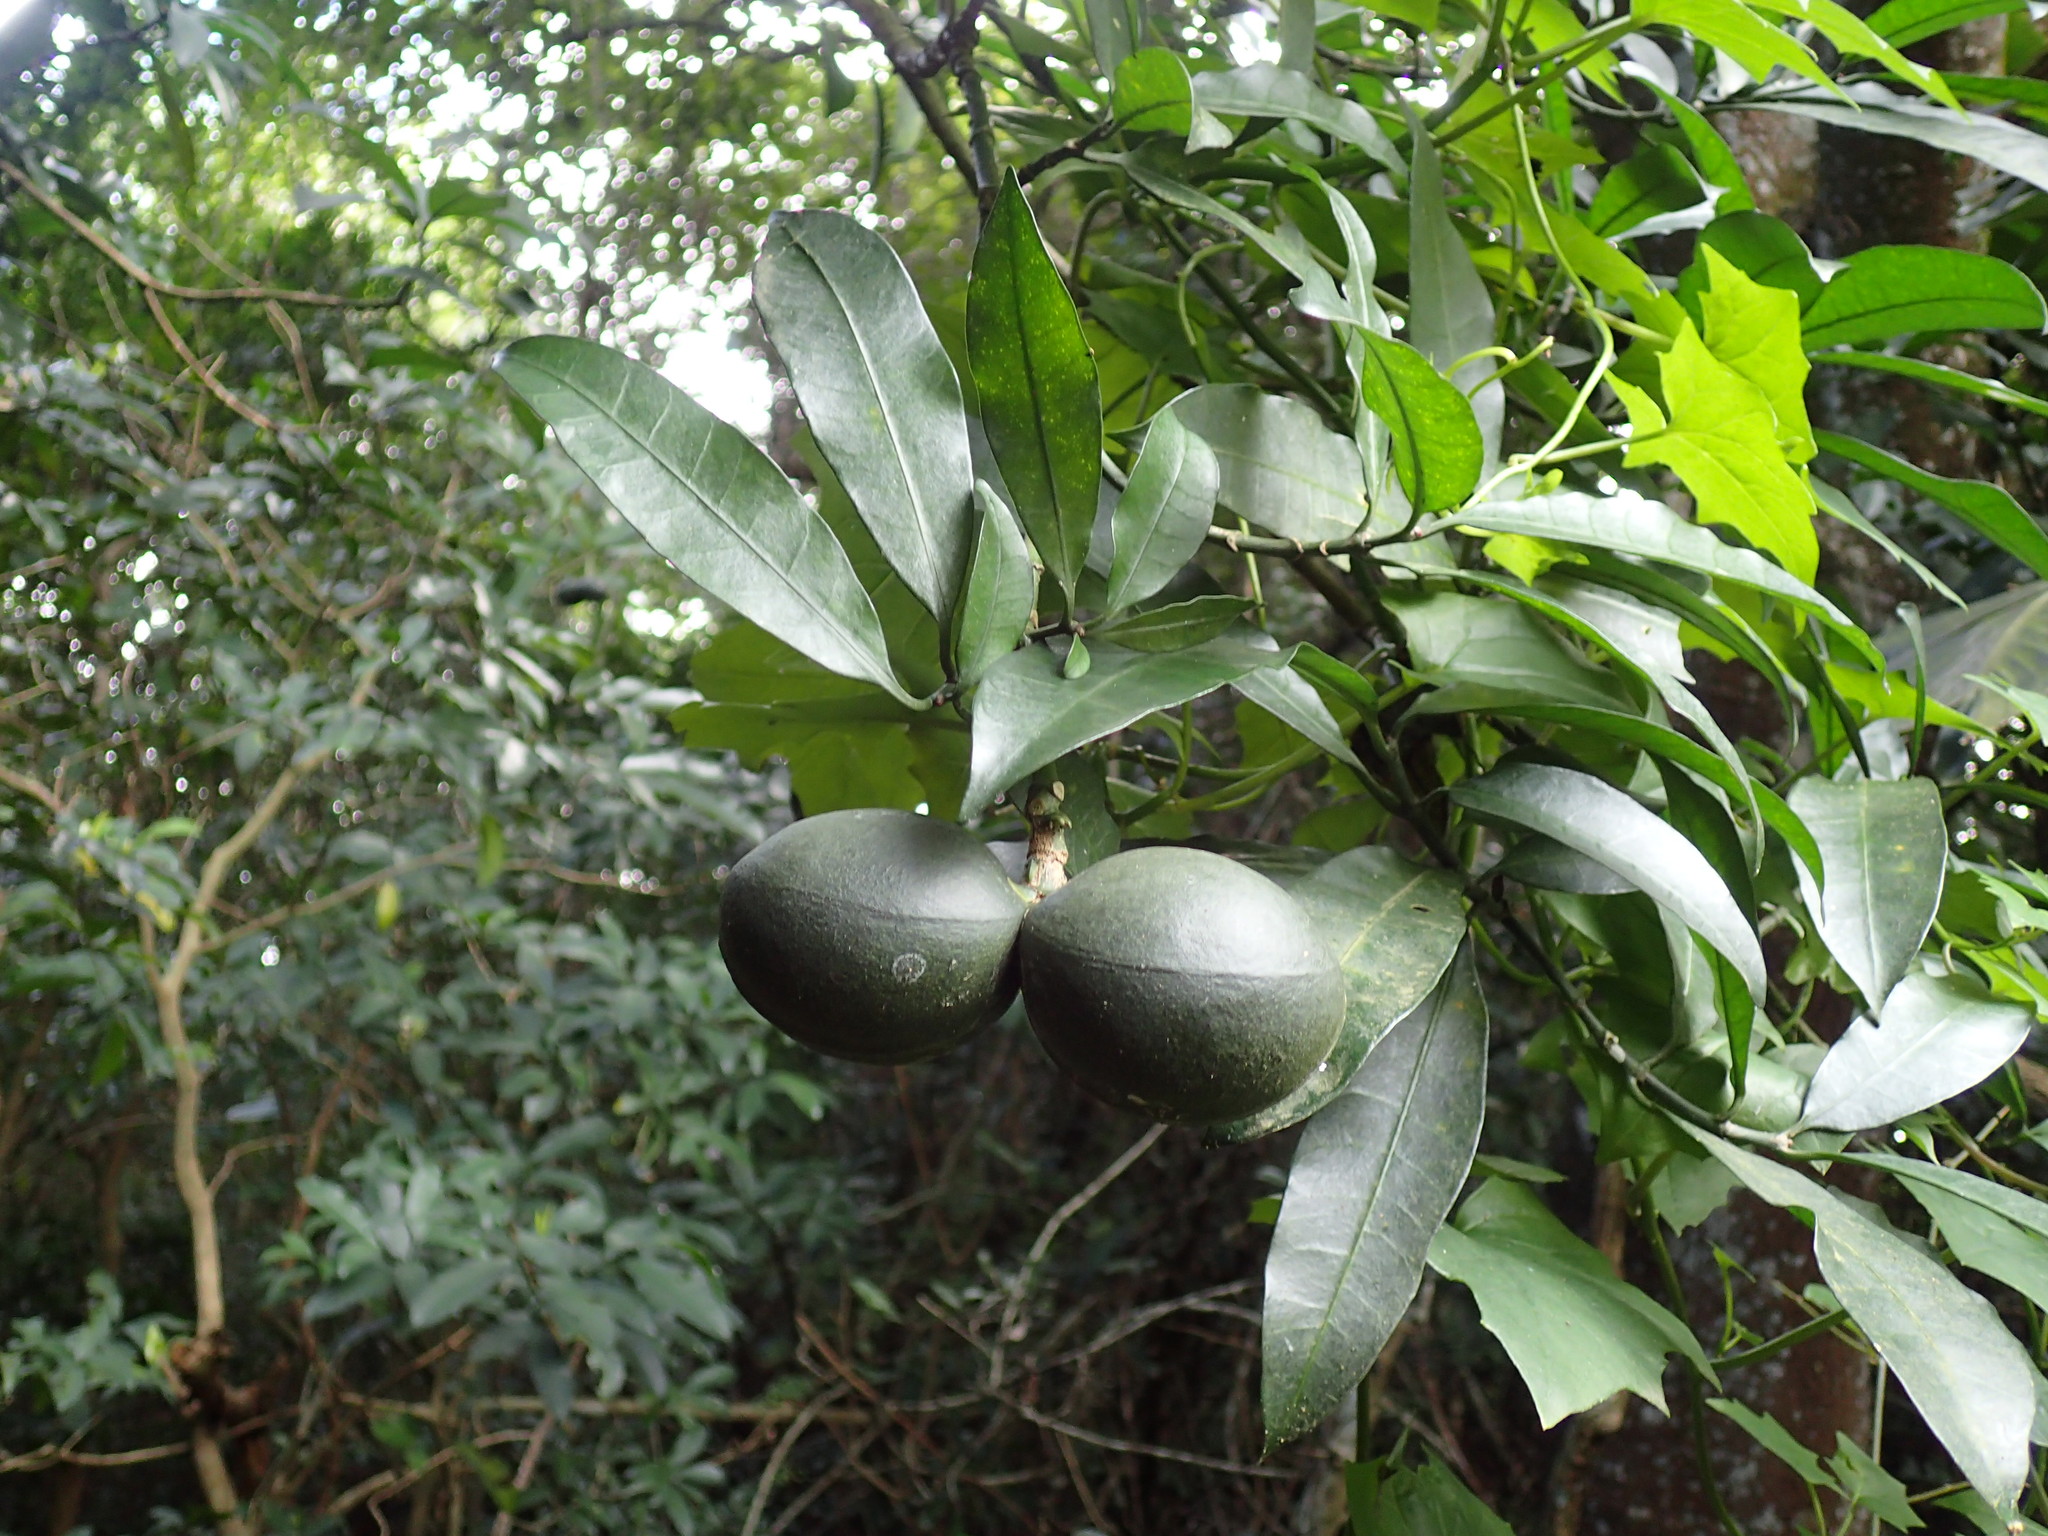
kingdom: Plantae
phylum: Tracheophyta
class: Magnoliopsida
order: Gentianales
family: Apocynaceae
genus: Tabernaemontana
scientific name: Tabernaemontana ventricosa
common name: Forest toad-tree
